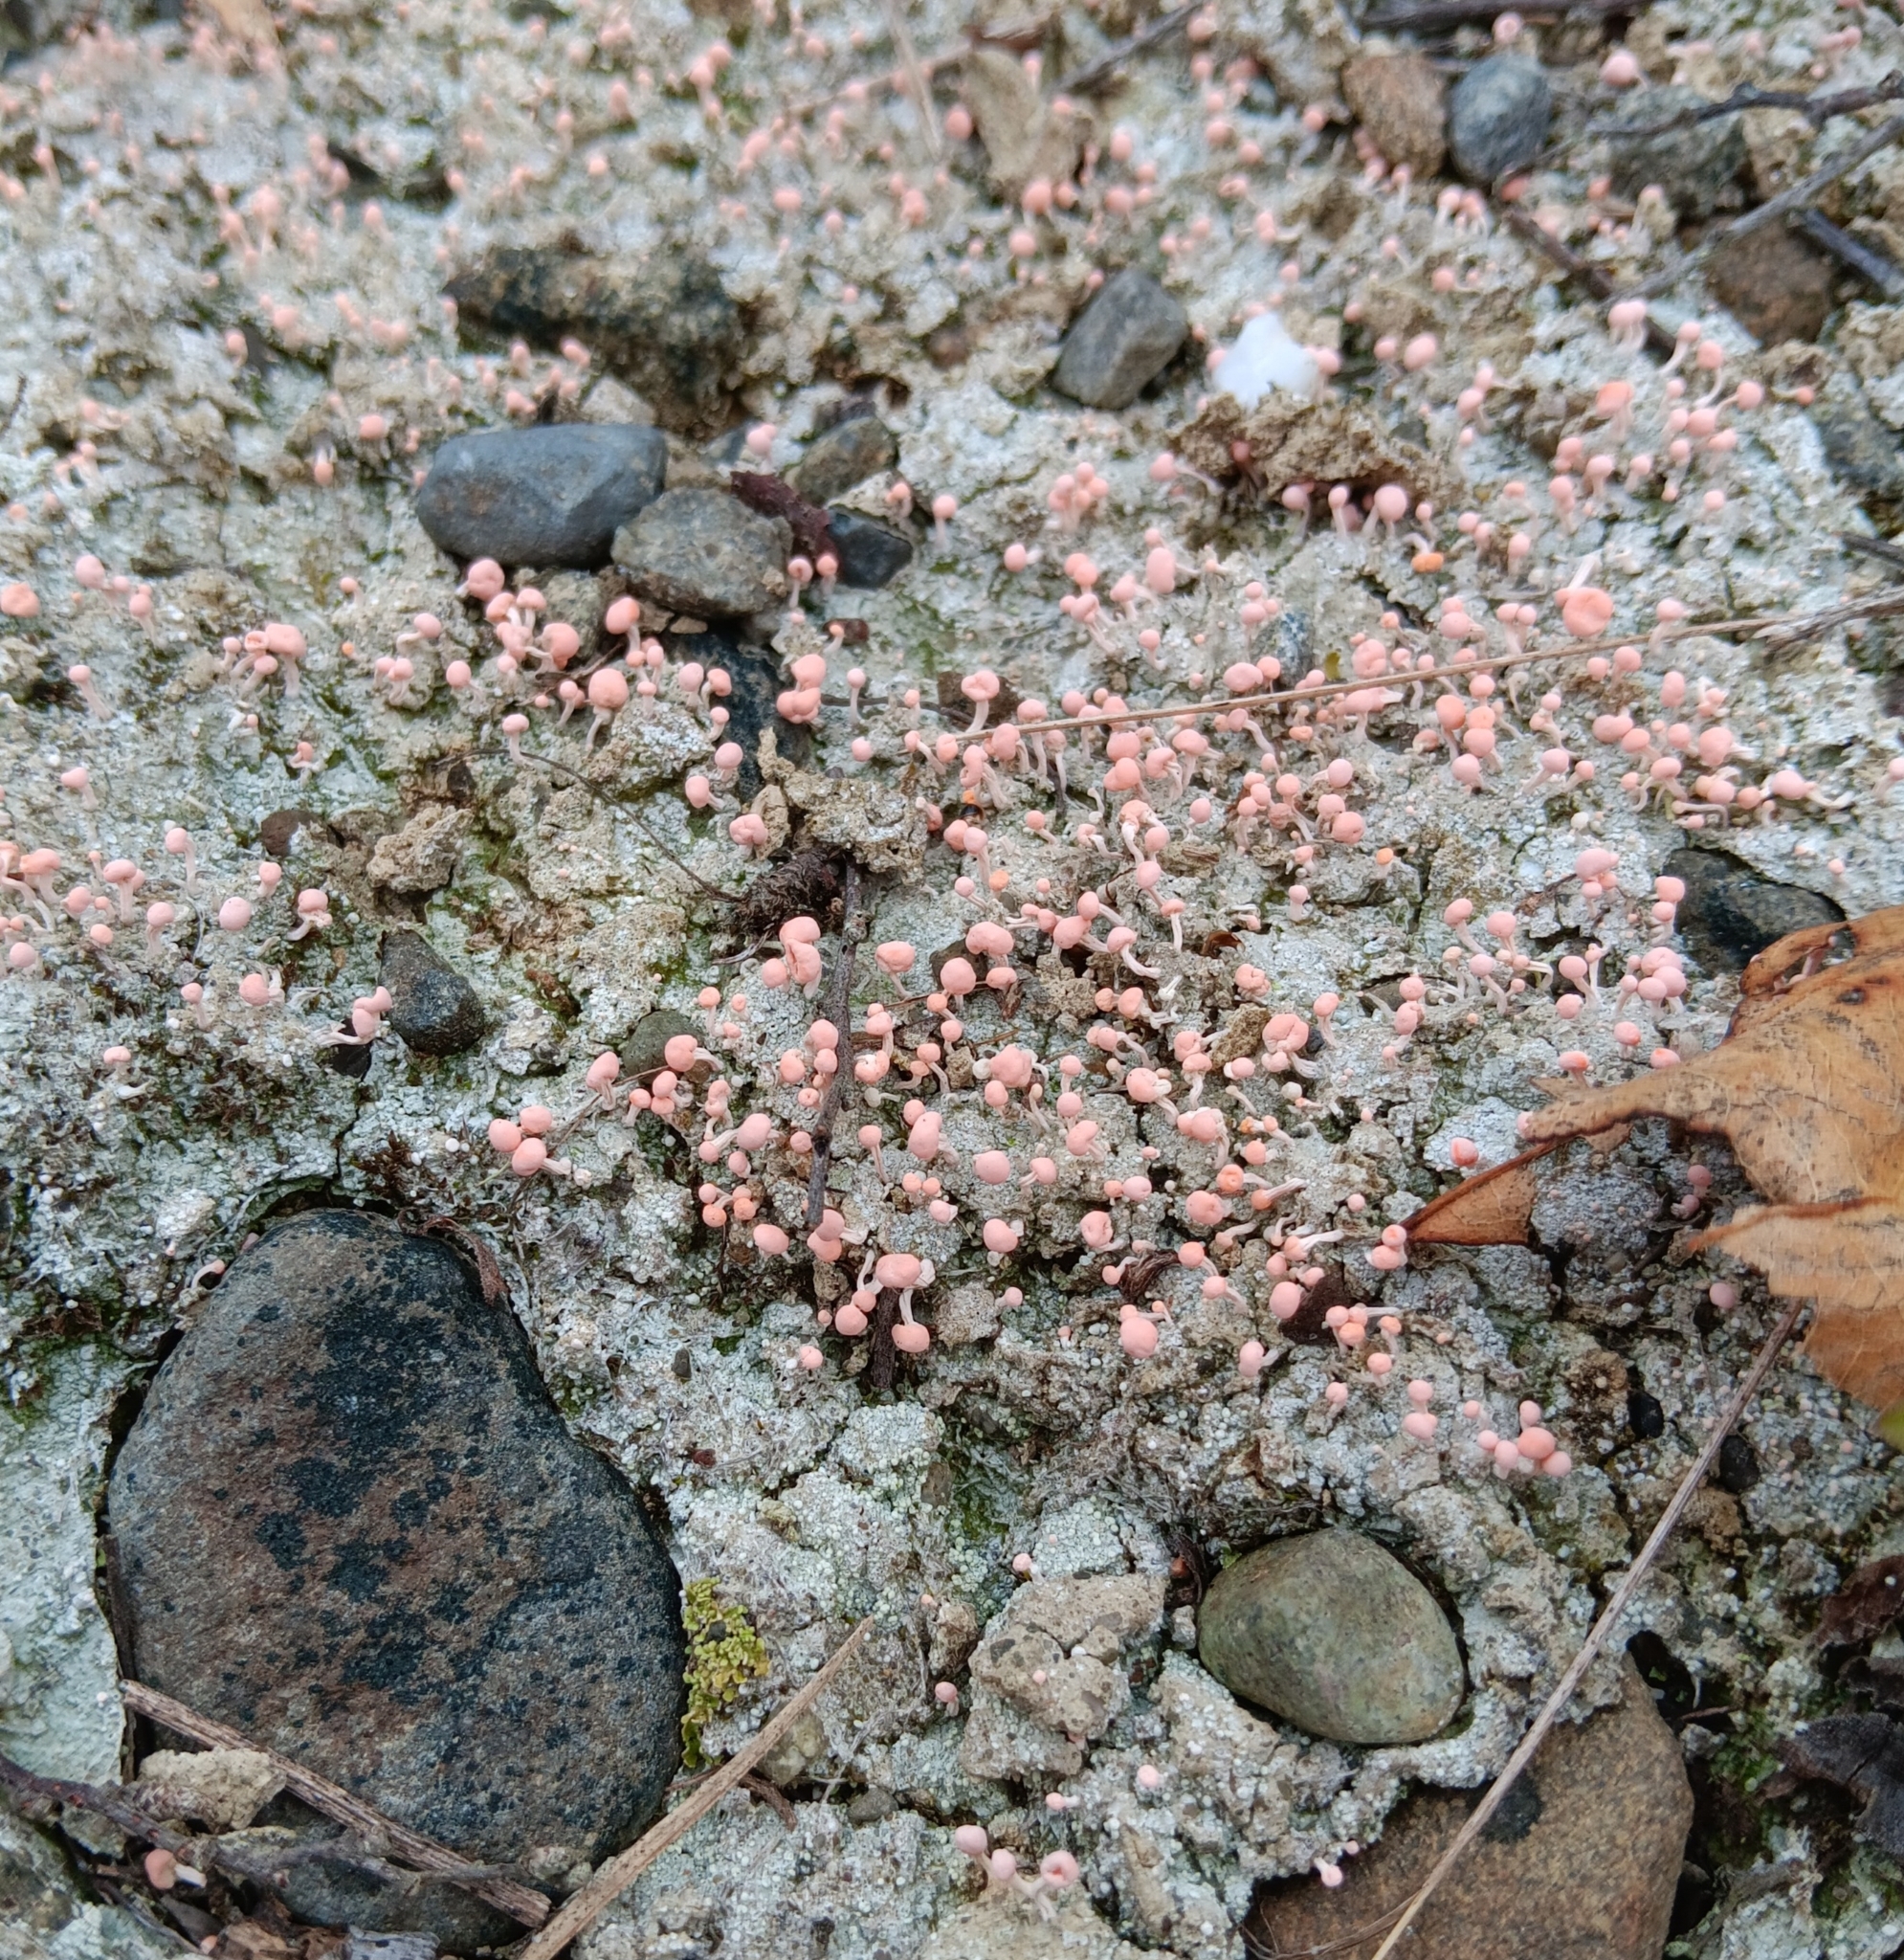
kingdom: Fungi
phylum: Ascomycota
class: Lecanoromycetes
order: Pertusariales
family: Icmadophilaceae
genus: Dibaeis
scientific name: Dibaeis baeomyces
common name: Pink earth lichen
